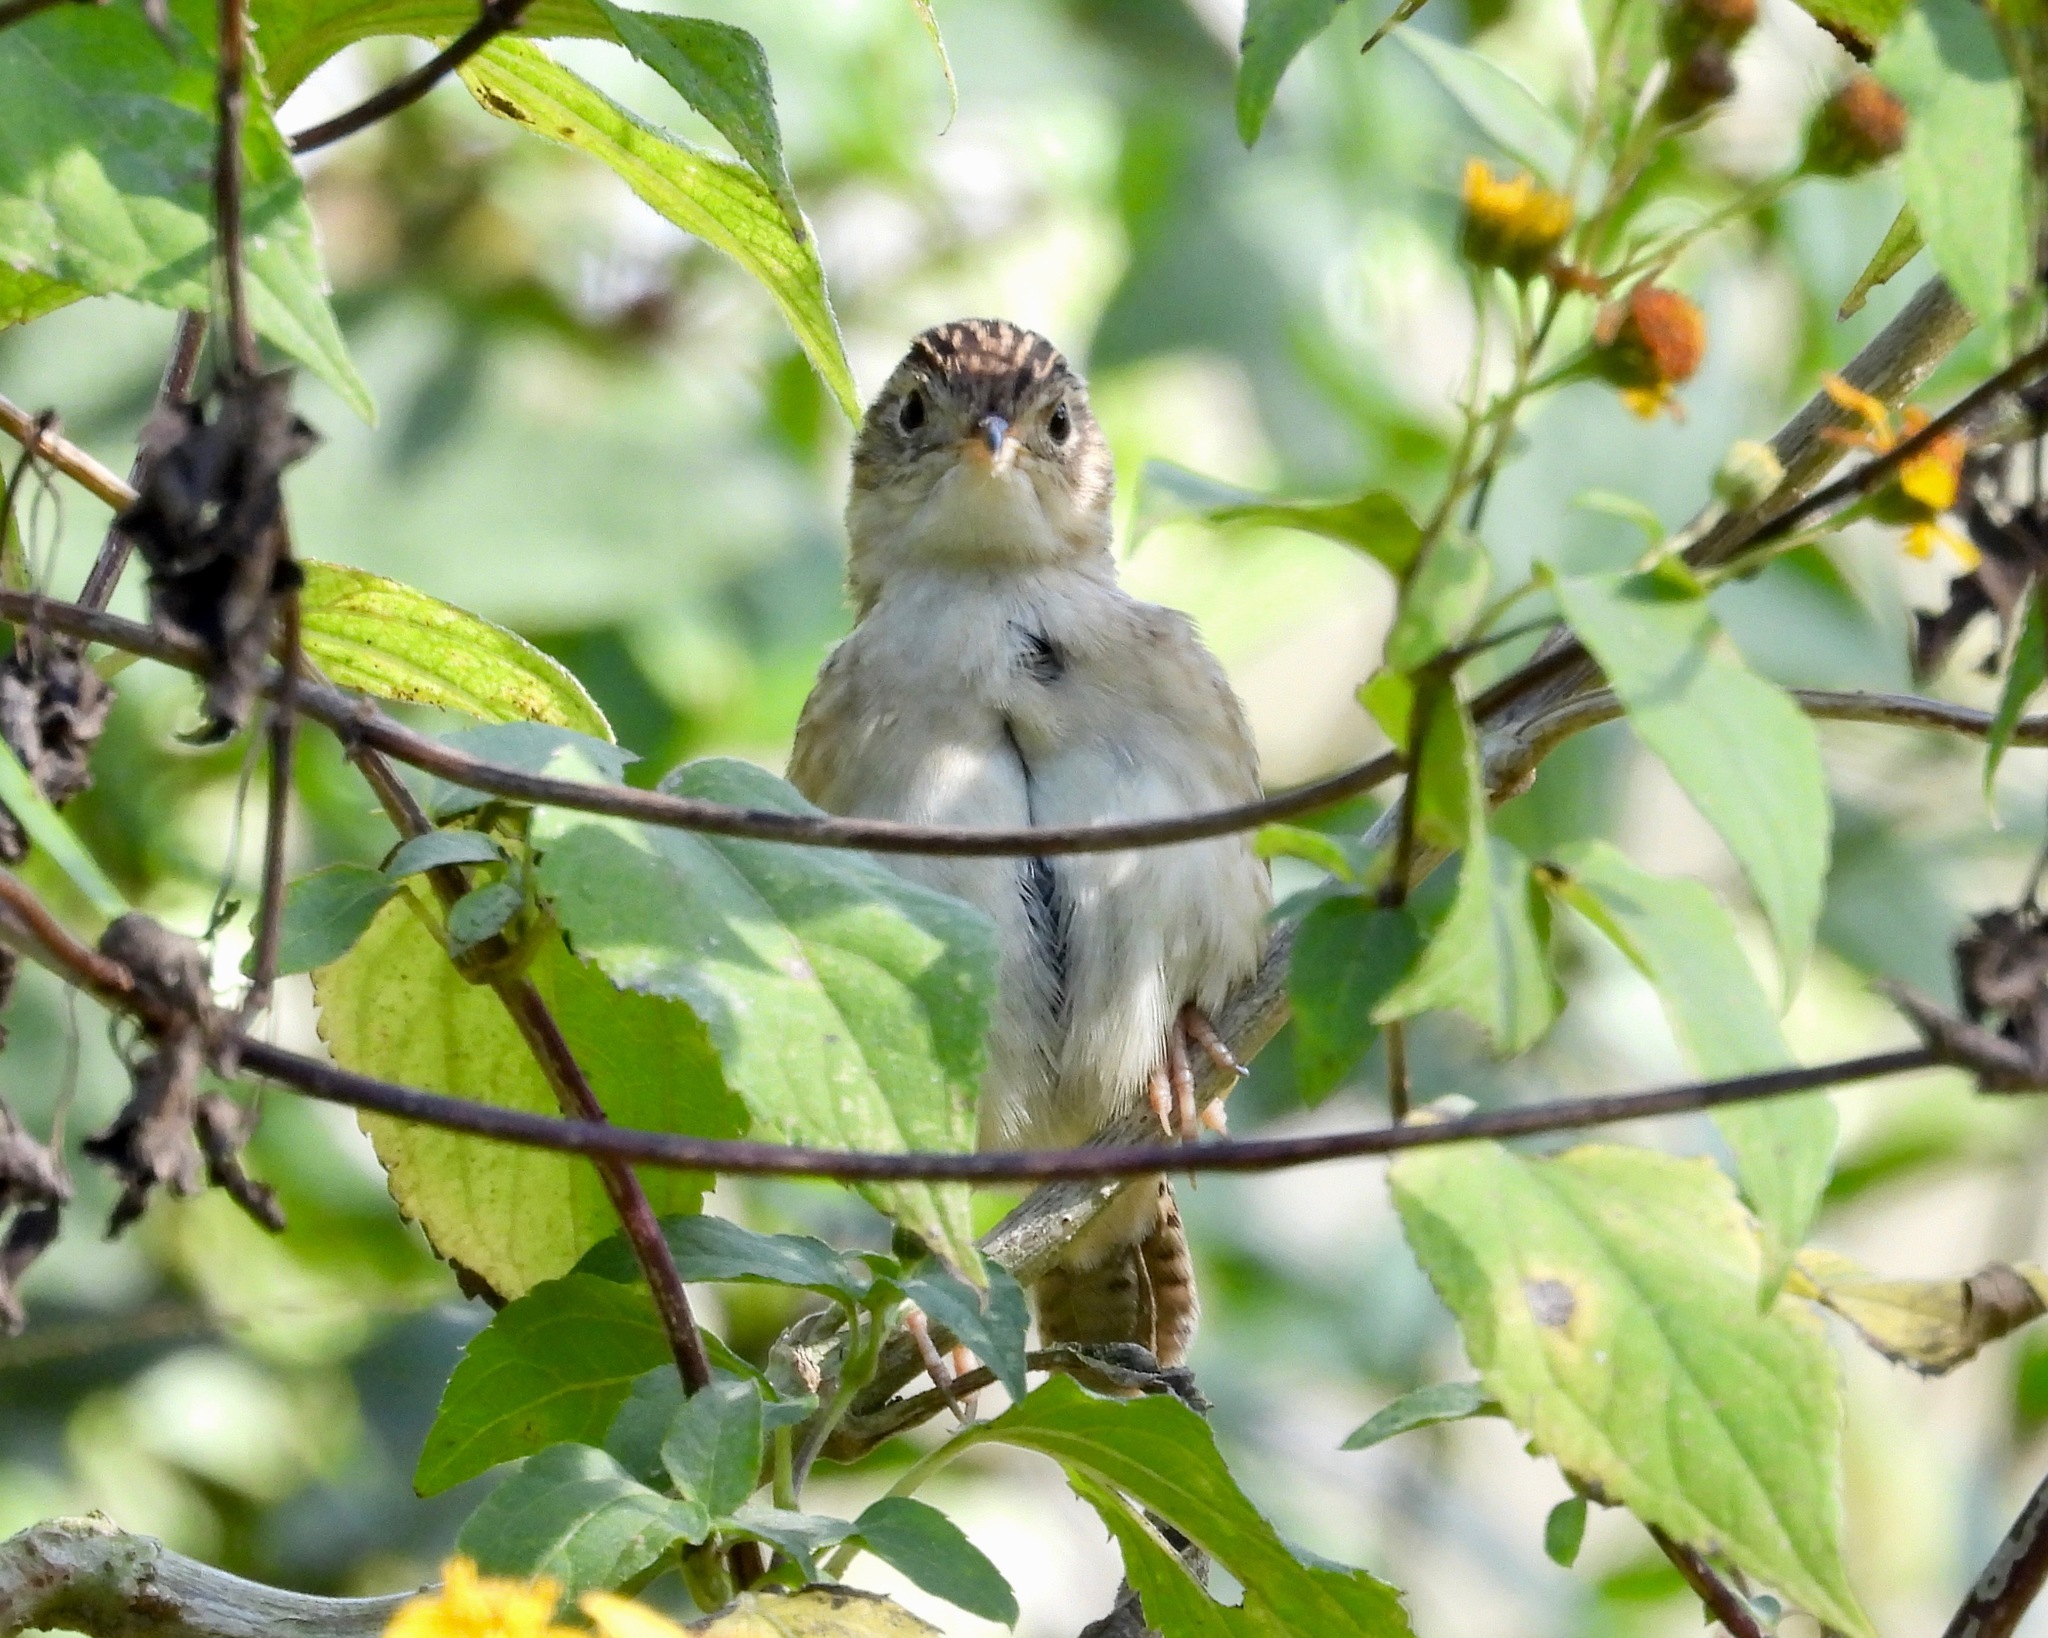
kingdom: Animalia
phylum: Chordata
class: Aves
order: Passeriformes
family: Troglodytidae
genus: Cistothorus
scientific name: Cistothorus platensis
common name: Sedge wren
